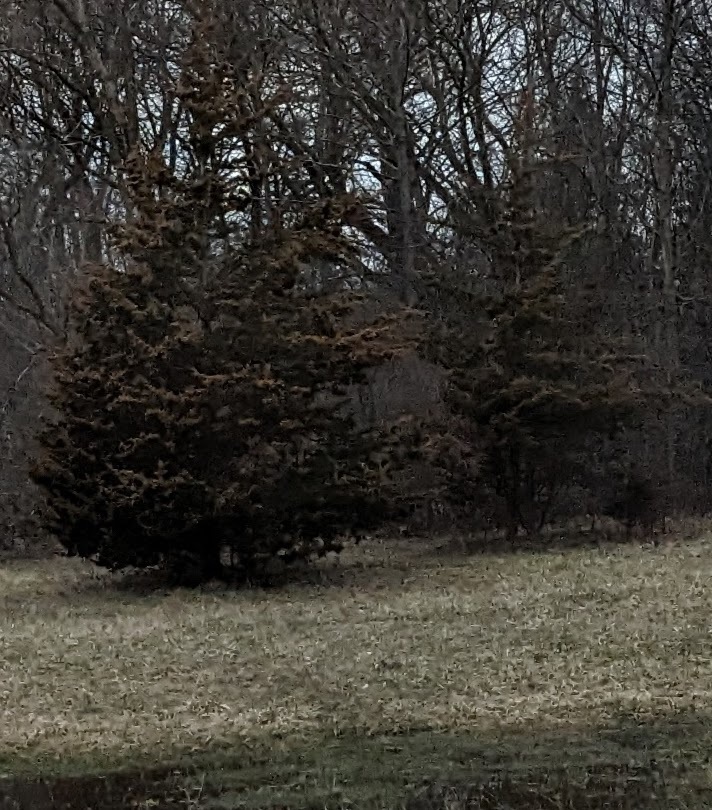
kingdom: Plantae
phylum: Tracheophyta
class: Pinopsida
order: Pinales
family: Cupressaceae
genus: Juniperus
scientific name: Juniperus virginiana
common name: Red juniper
